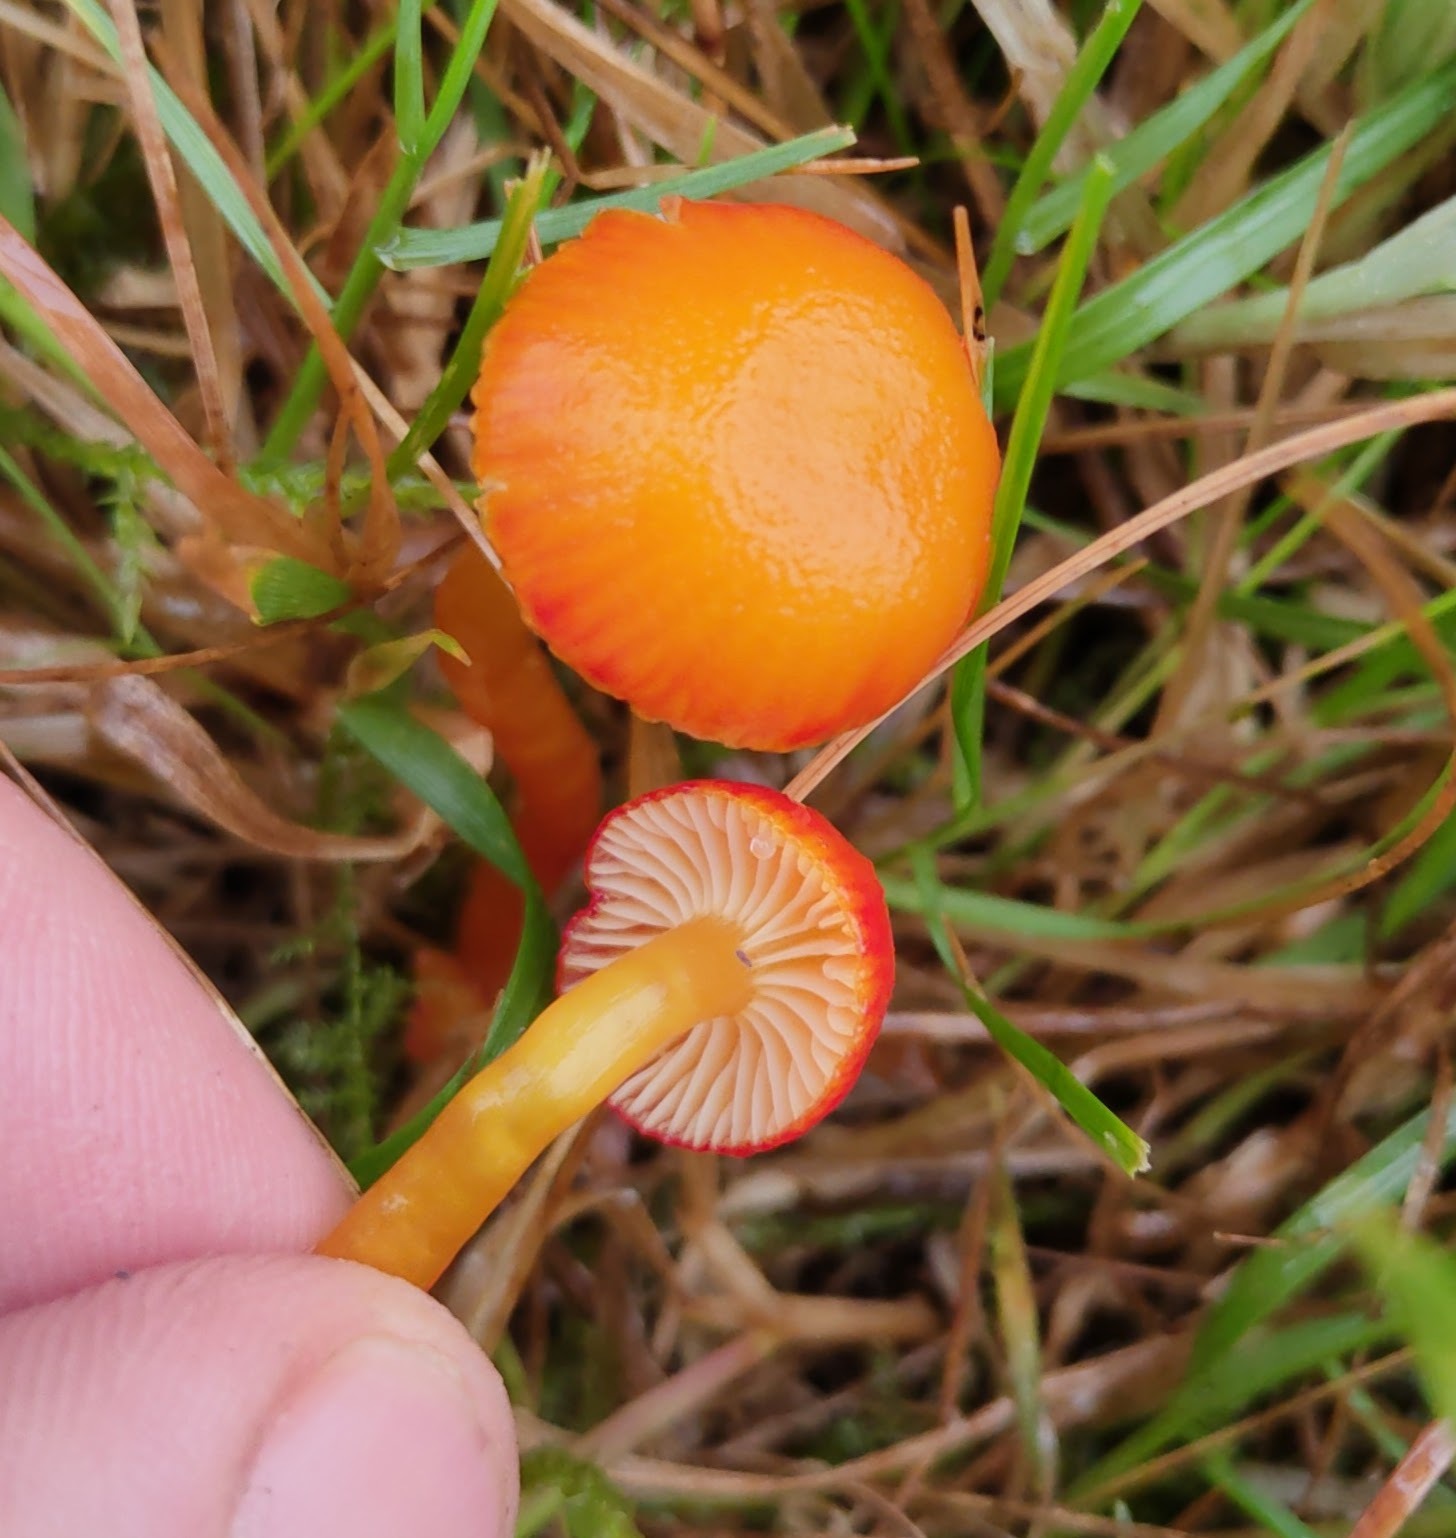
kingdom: Fungi
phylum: Basidiomycota
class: Agaricomycetes
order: Agaricales
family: Hygrophoraceae
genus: Hygrocybe
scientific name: Hygrocybe insipida
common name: Spangle waxcap
